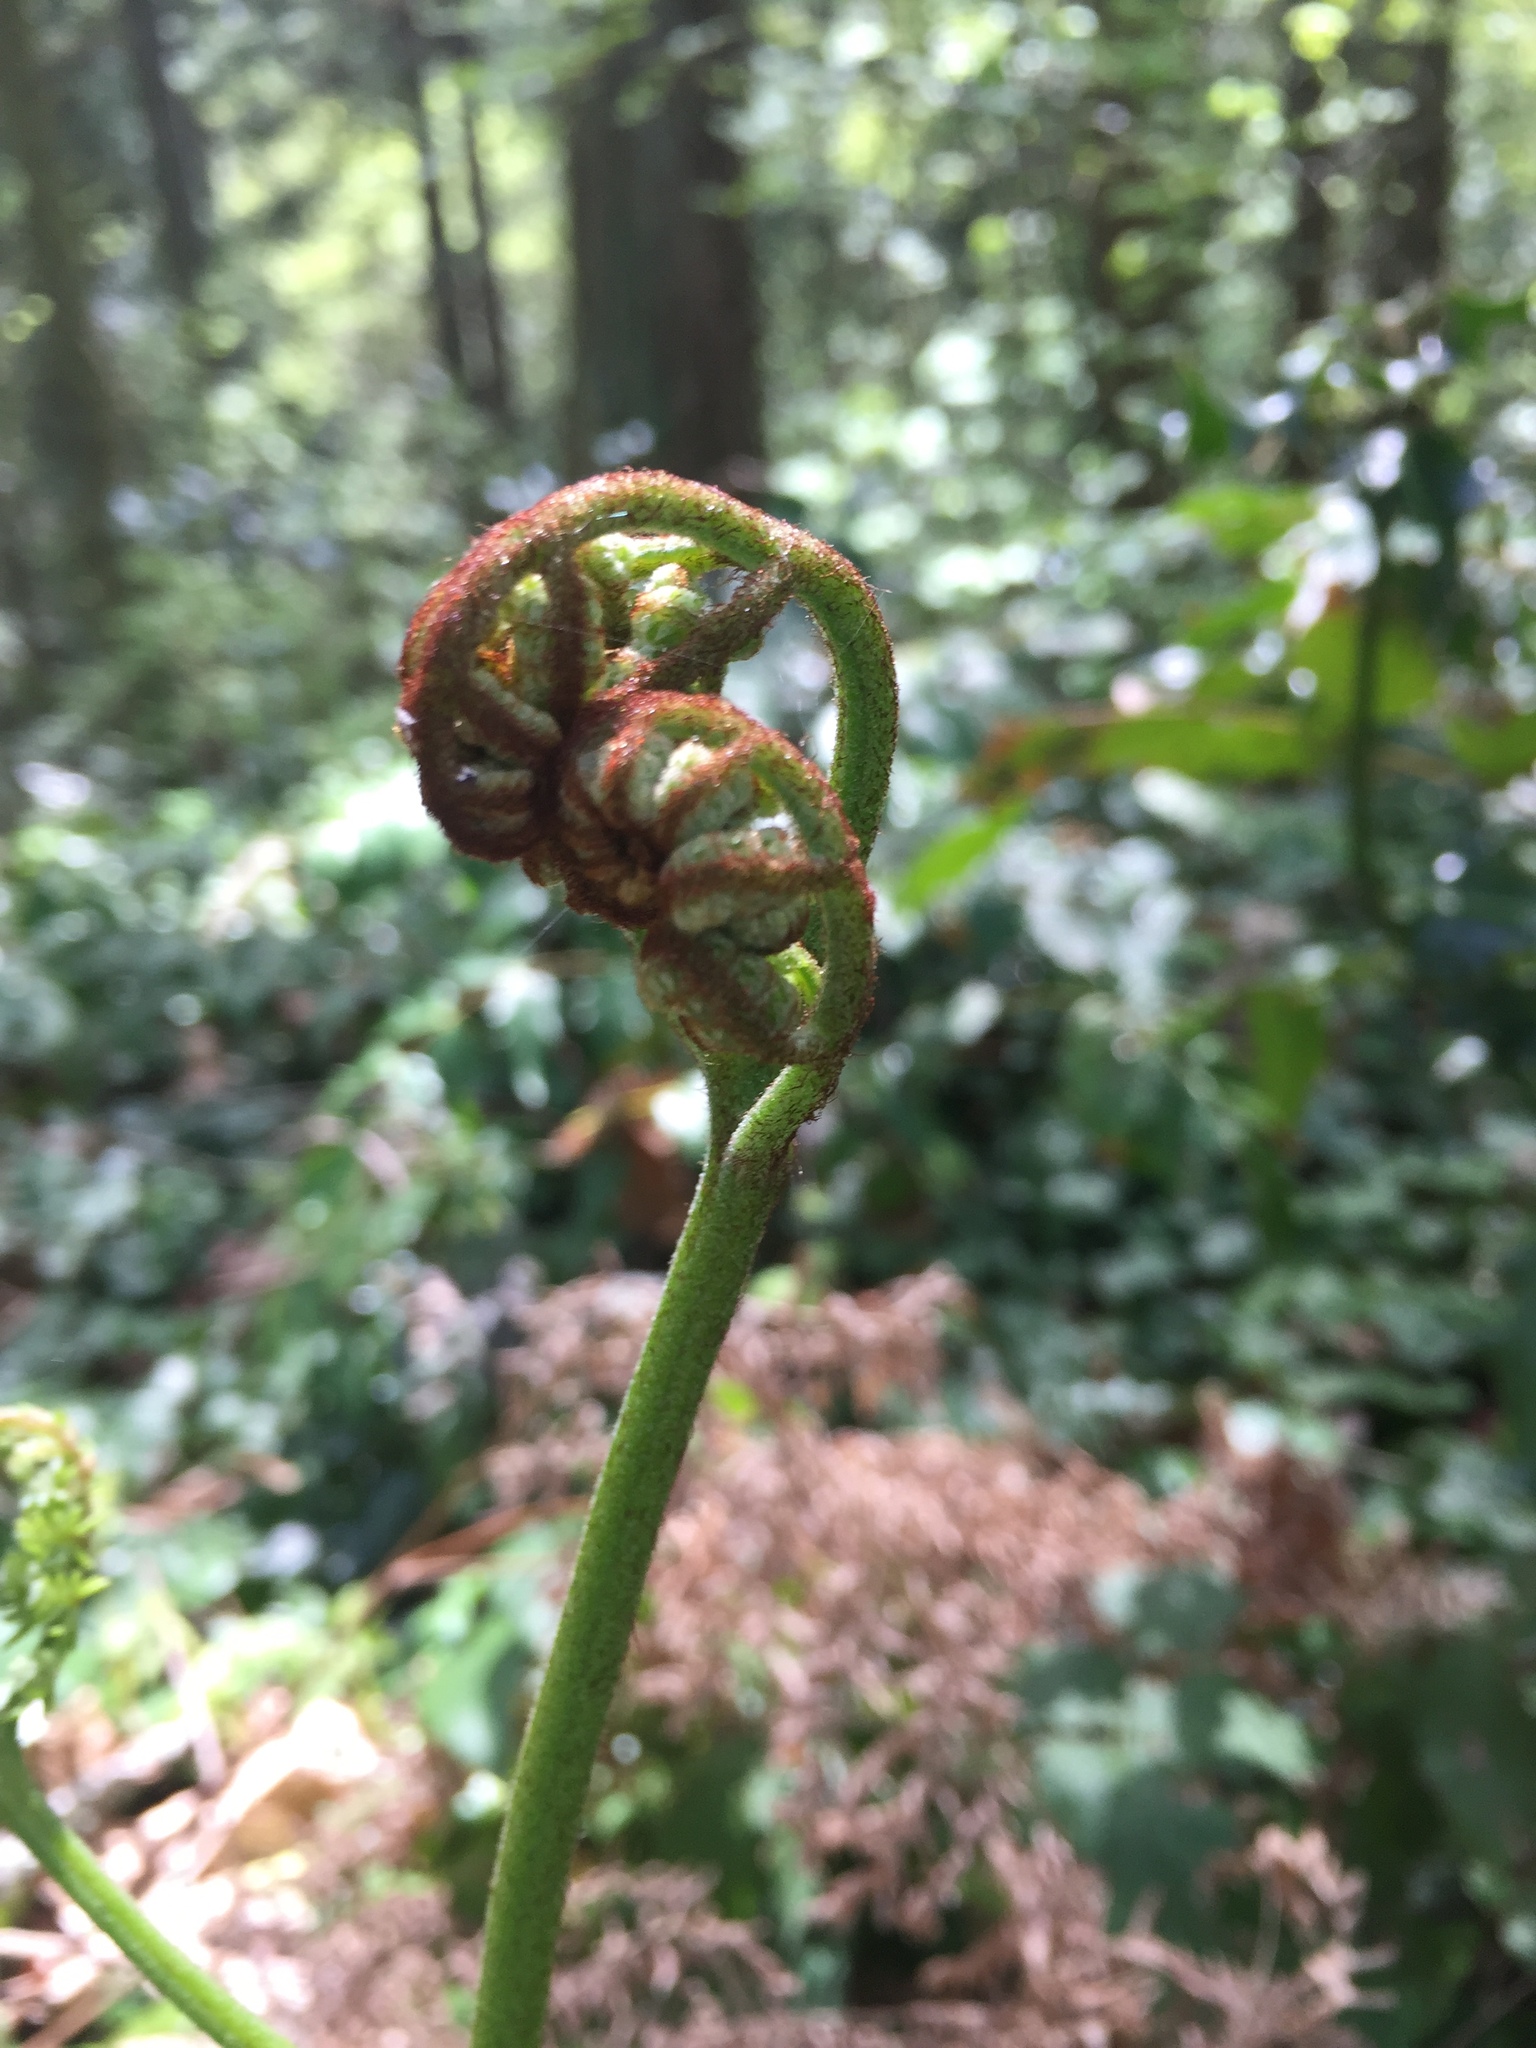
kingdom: Plantae
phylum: Tracheophyta
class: Polypodiopsida
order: Polypodiales
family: Dennstaedtiaceae
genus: Pteridium
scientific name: Pteridium aquilinum
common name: Bracken
